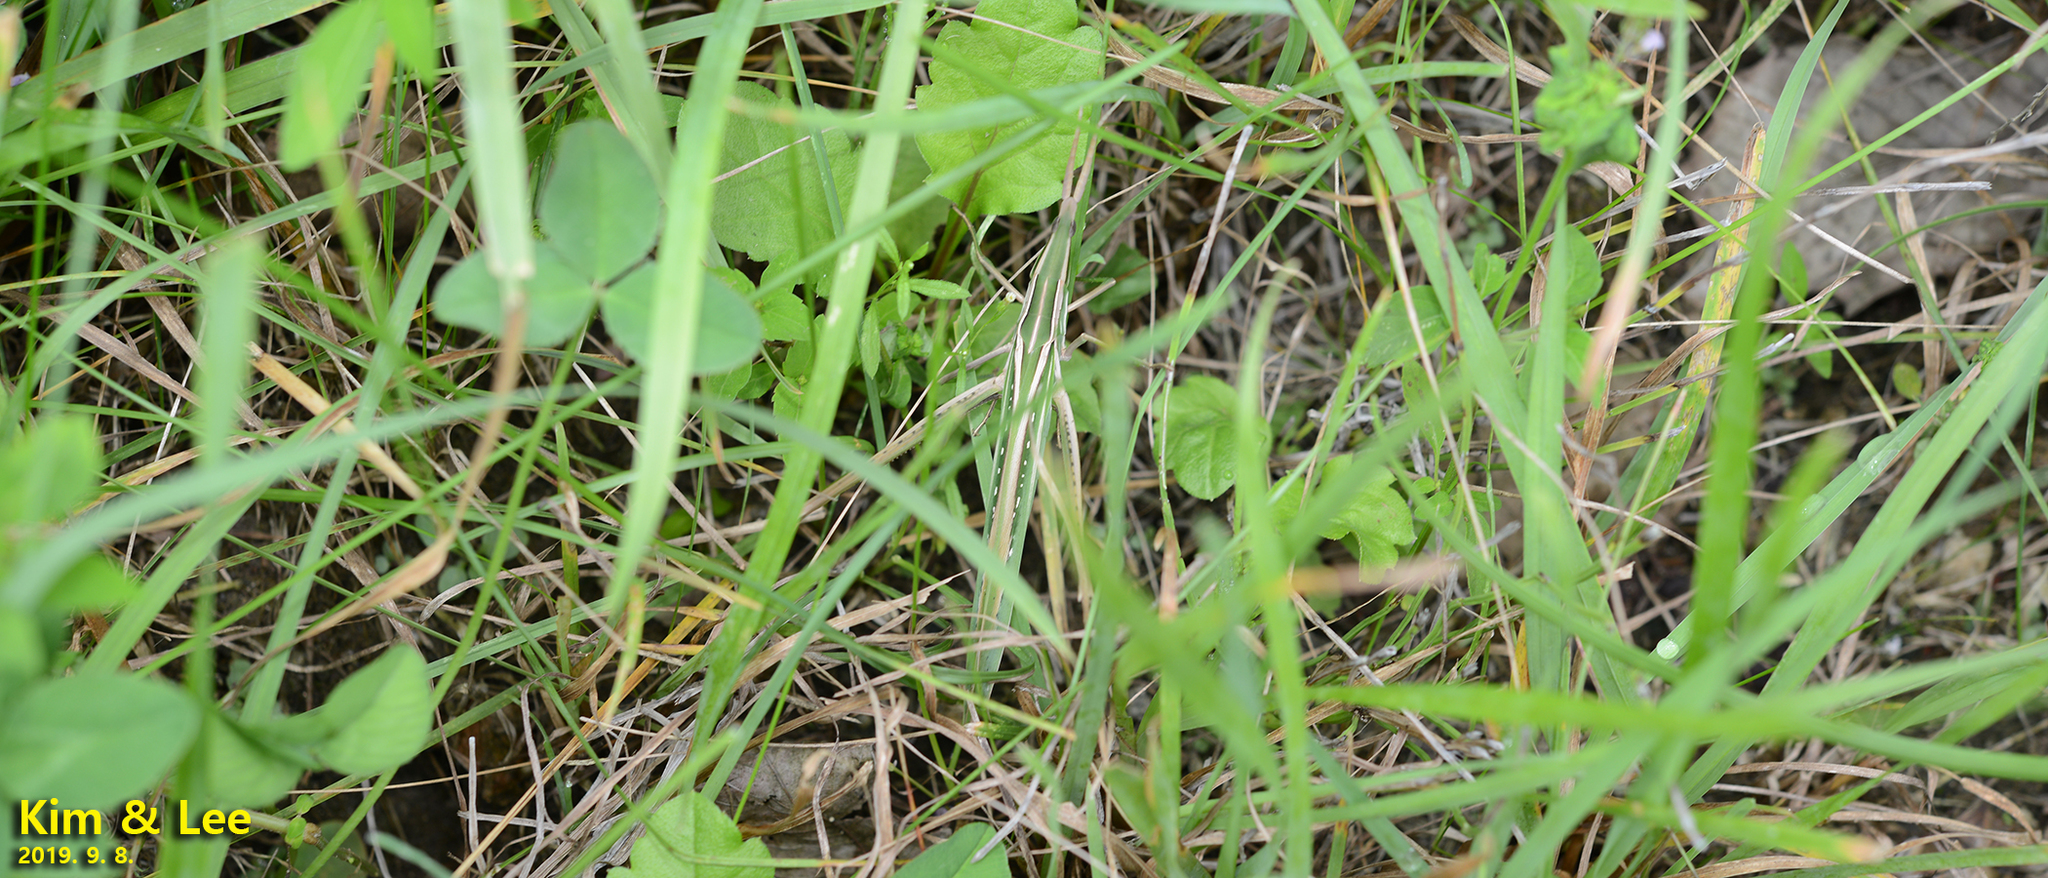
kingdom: Animalia
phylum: Arthropoda
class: Insecta
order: Orthoptera
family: Acrididae
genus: Acrida
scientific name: Acrida cinerea
